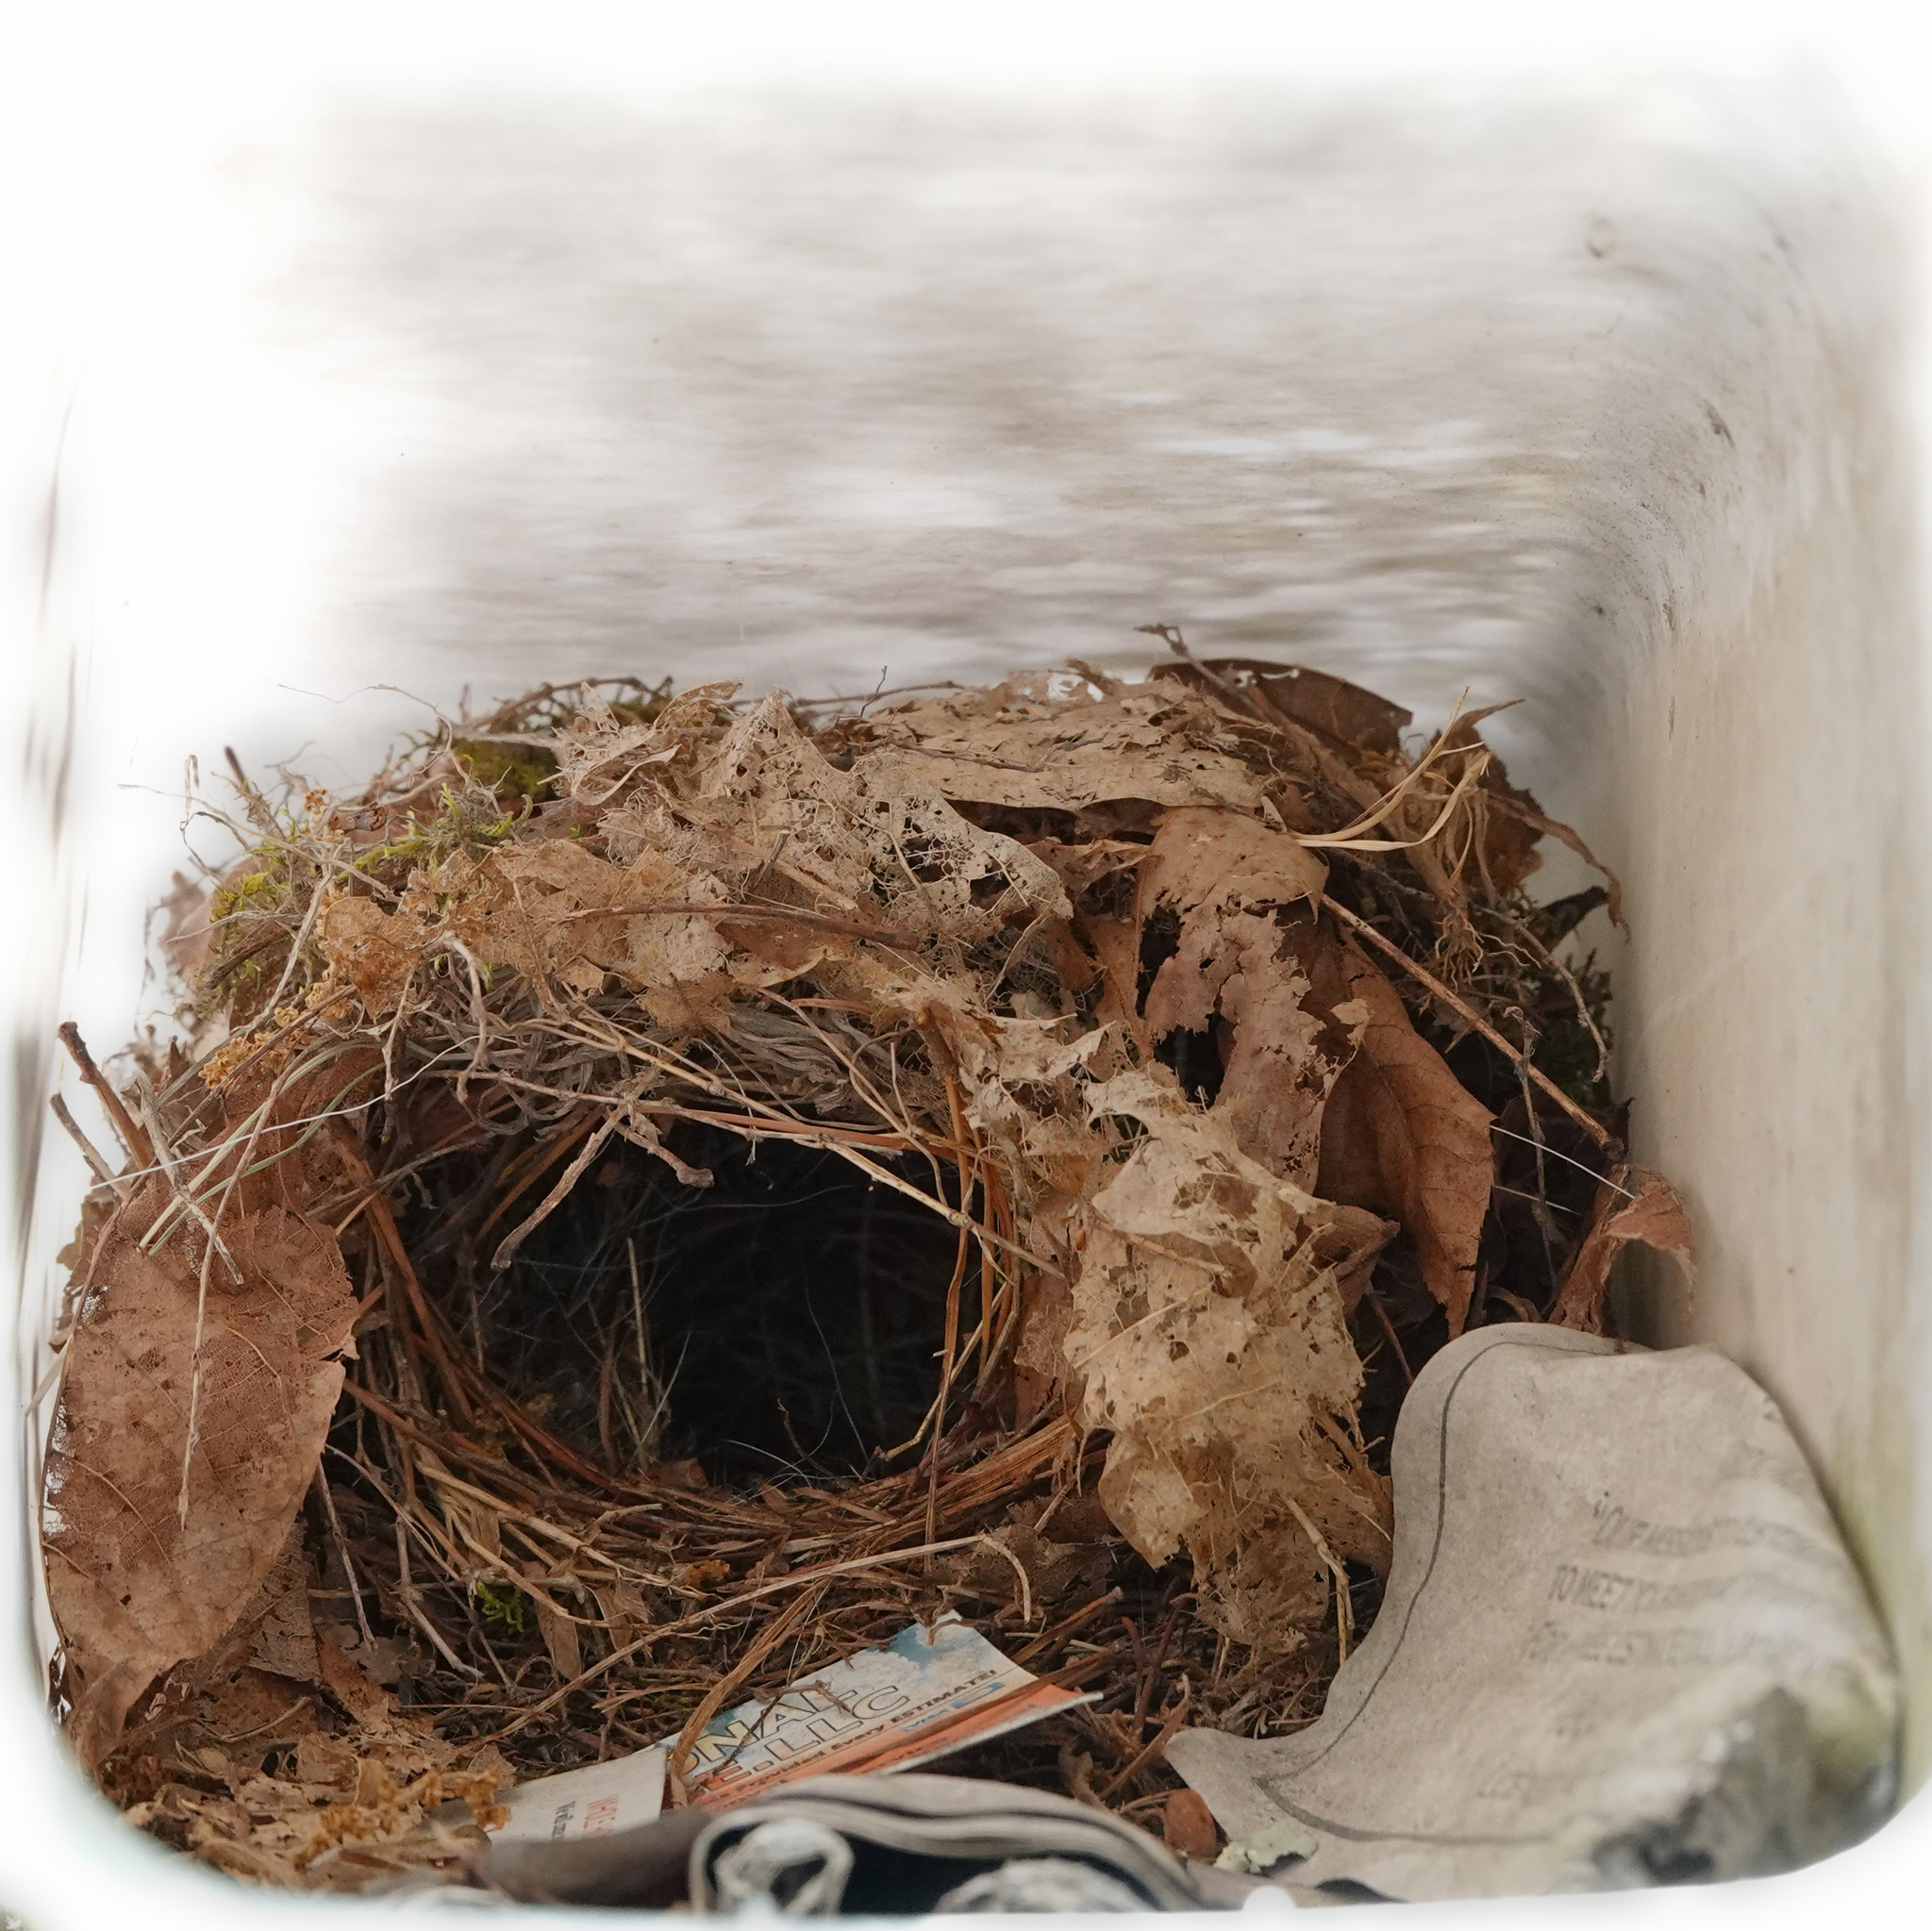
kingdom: Animalia
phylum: Chordata
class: Aves
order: Passeriformes
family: Troglodytidae
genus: Thryothorus
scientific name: Thryothorus ludovicianus
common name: Carolina wren
